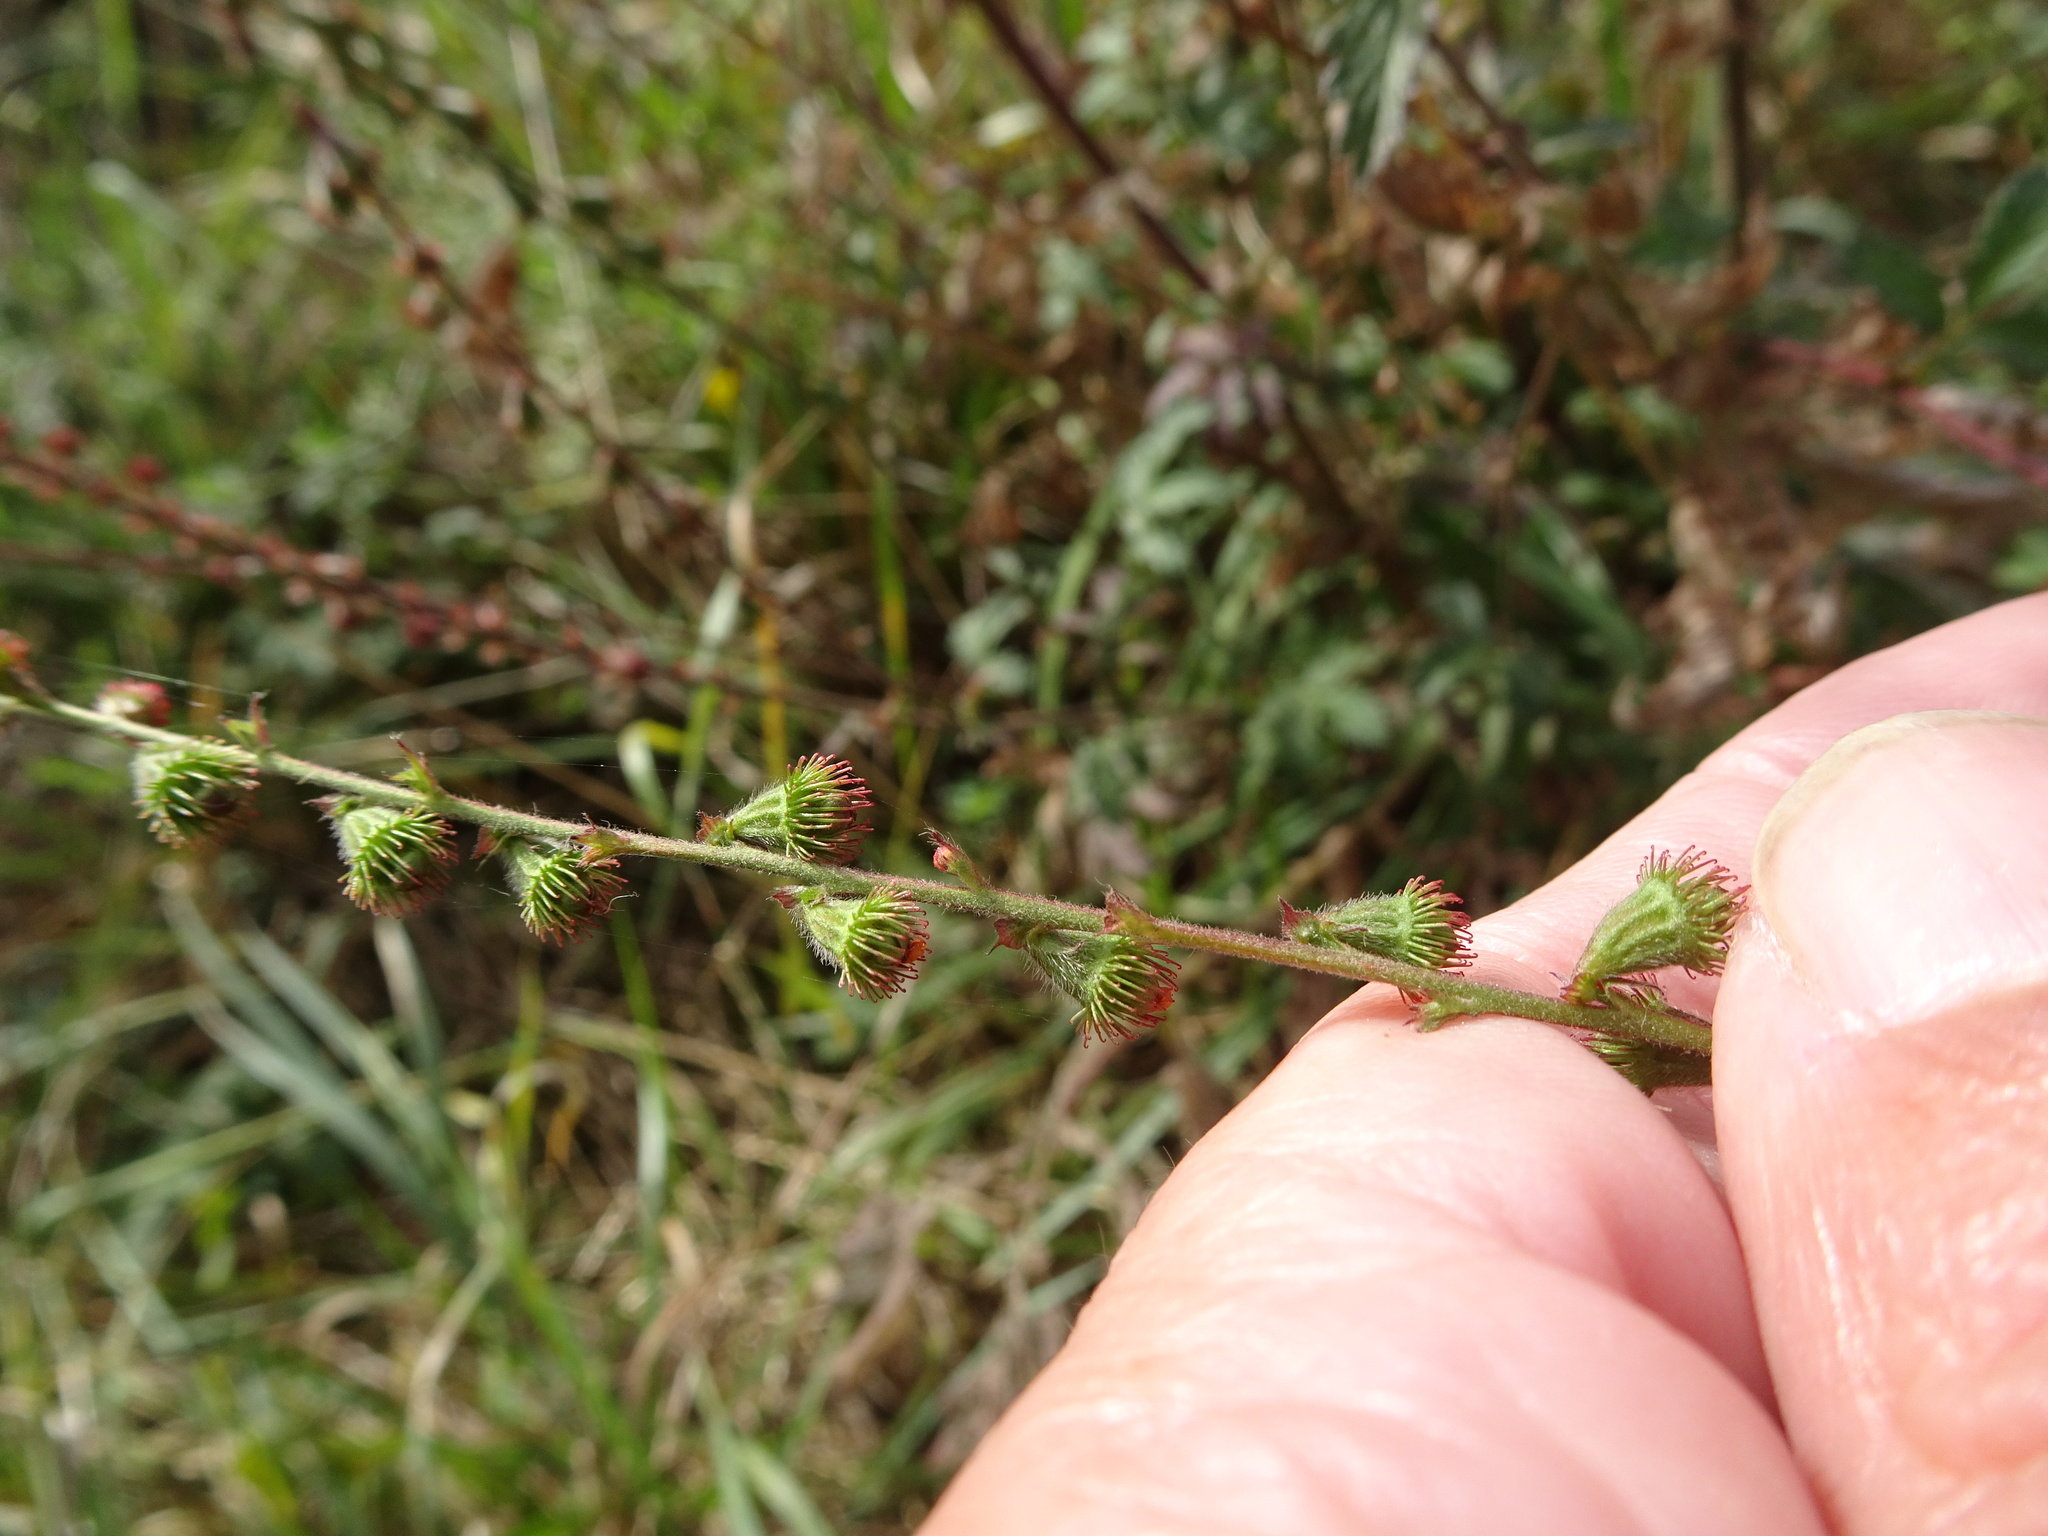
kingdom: Plantae
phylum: Tracheophyta
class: Magnoliopsida
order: Rosales
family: Rosaceae
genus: Agrimonia
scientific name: Agrimonia eupatoria
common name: Agrimony
